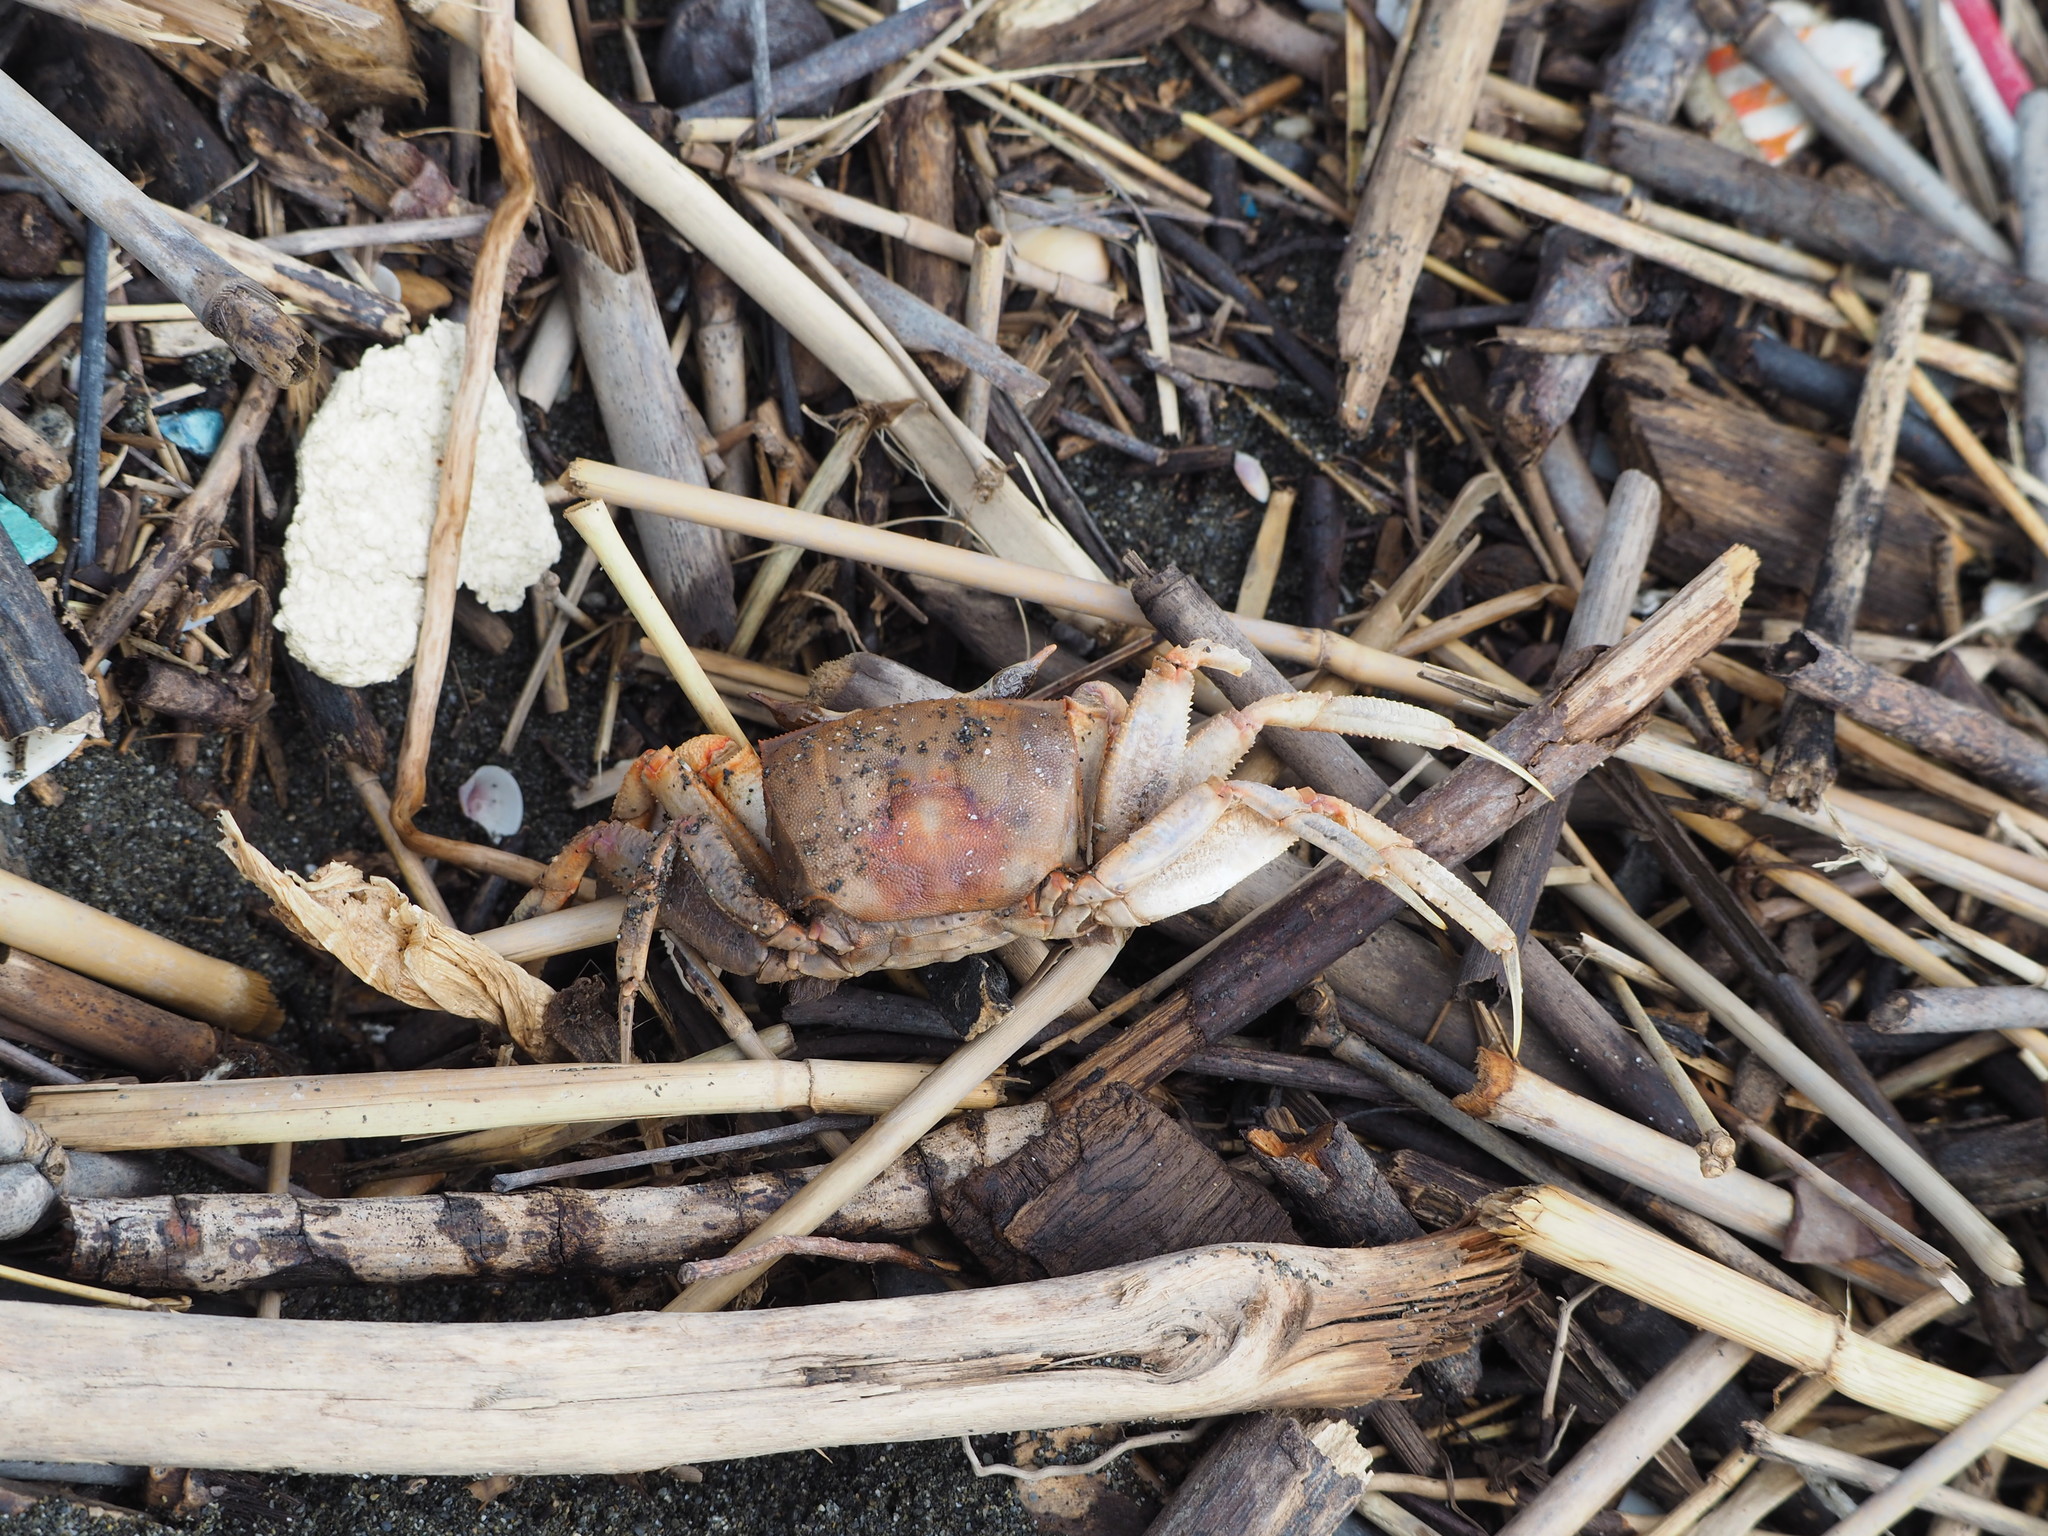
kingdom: Animalia
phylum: Arthropoda
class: Malacostraca
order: Decapoda
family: Ocypodidae
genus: Ocypode
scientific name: Ocypode ceratophthalmus
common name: Indo-pacific ghost crab
